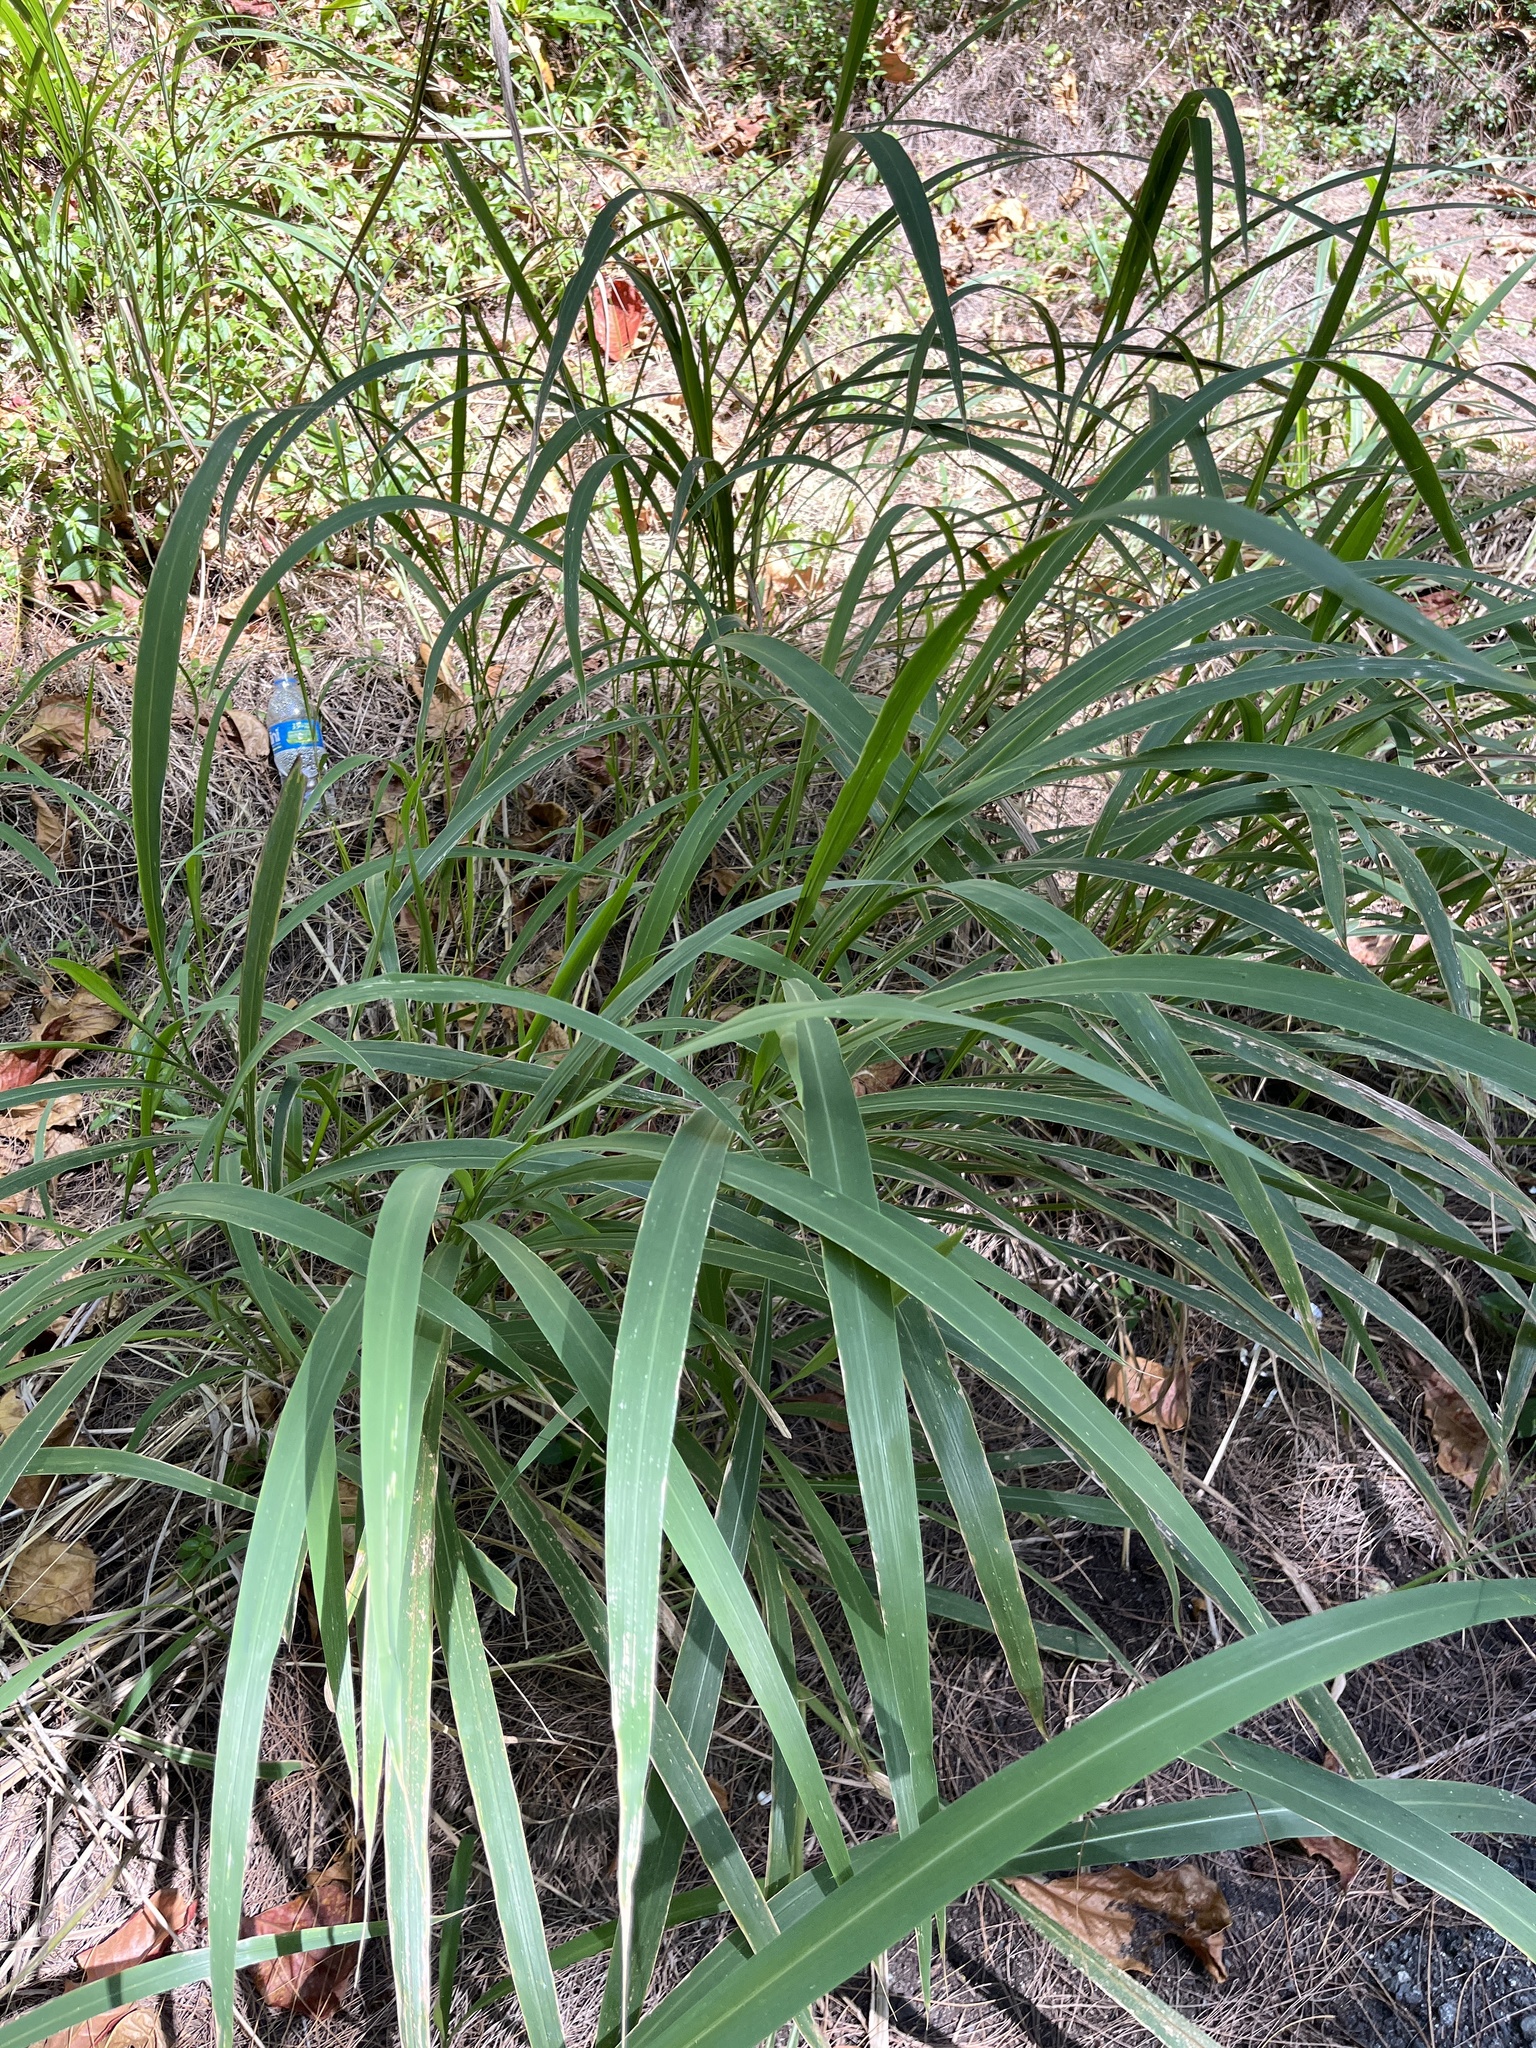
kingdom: Plantae
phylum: Tracheophyta
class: Liliopsida
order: Poales
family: Poaceae
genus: Megathyrsus
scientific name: Megathyrsus maximus
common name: Guineagrass
